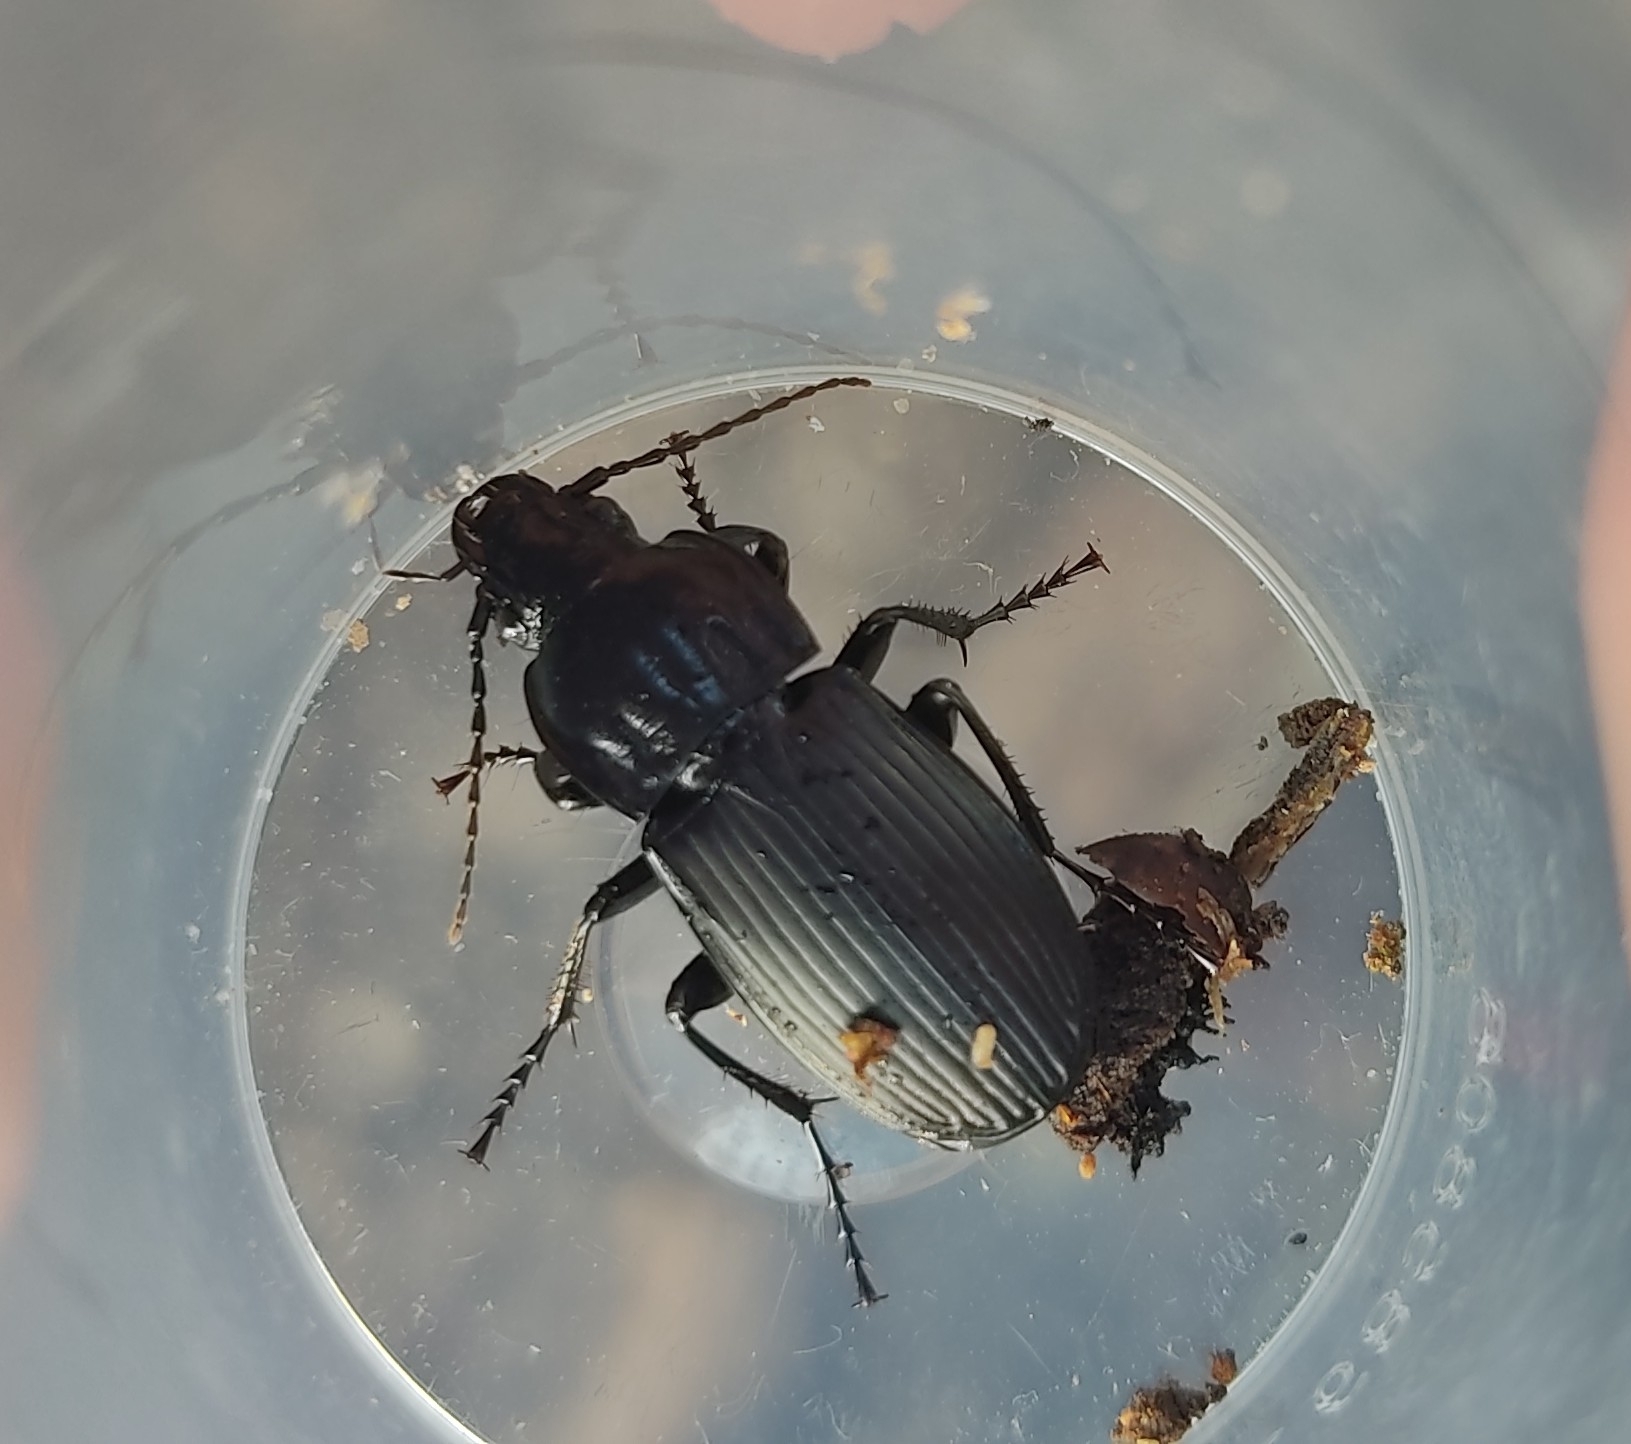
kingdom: Animalia
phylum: Arthropoda
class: Insecta
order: Coleoptera
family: Carabidae
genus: Abax
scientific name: Abax parallelepipedus
